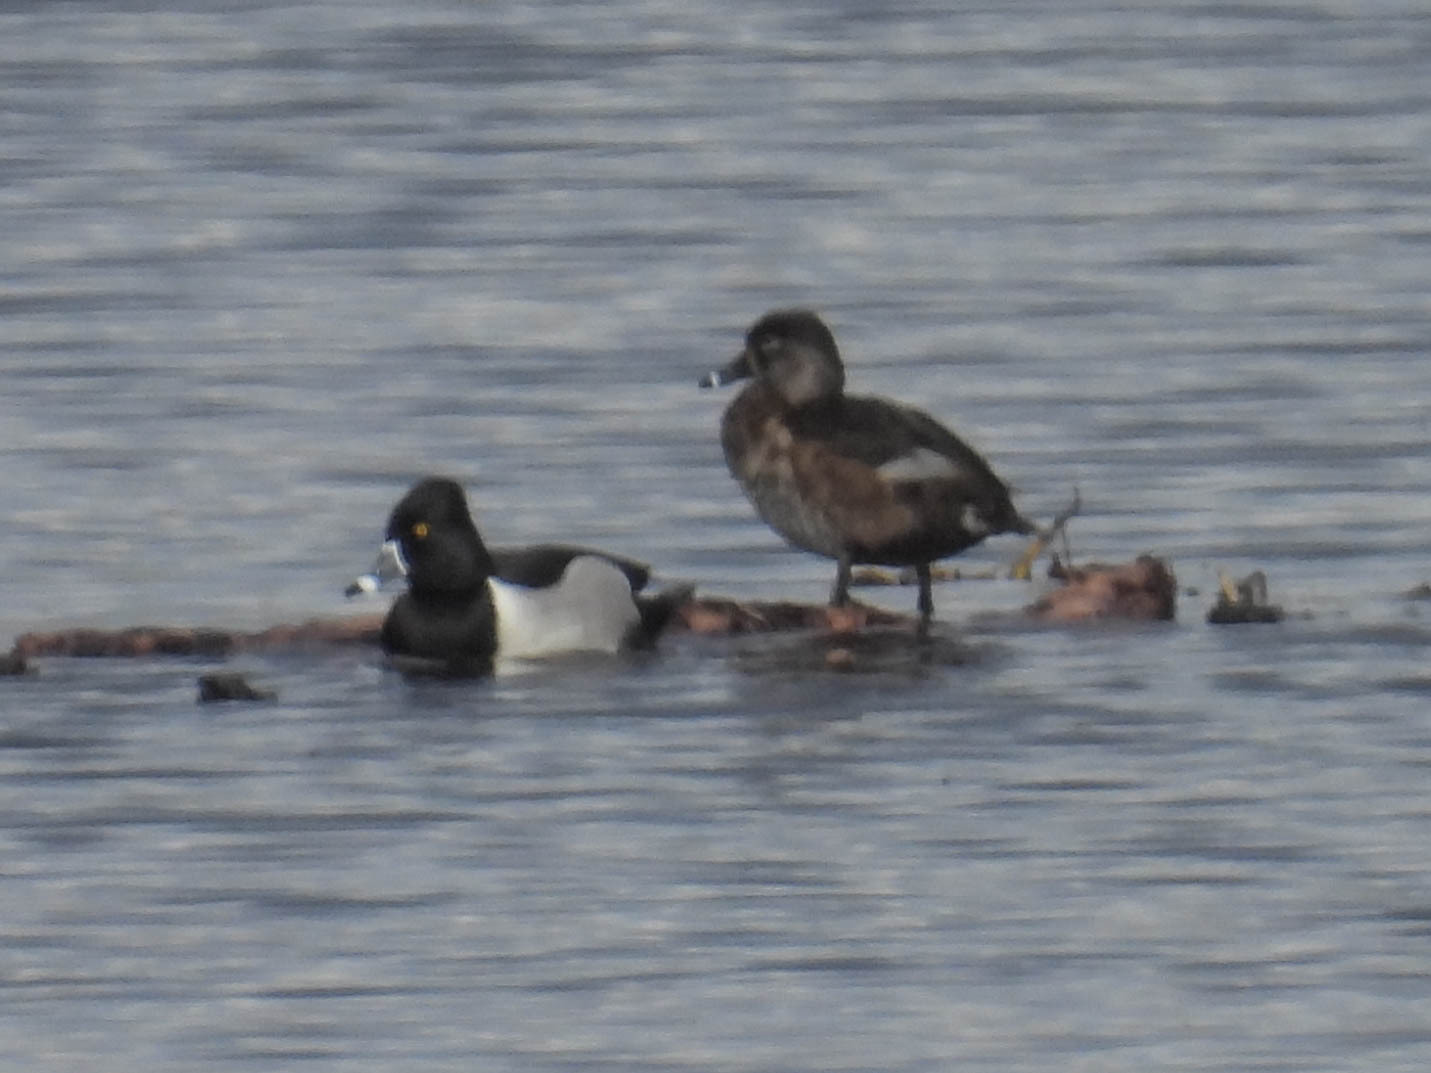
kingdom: Animalia
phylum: Chordata
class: Aves
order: Anseriformes
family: Anatidae
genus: Aythya
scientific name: Aythya collaris
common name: Ring-necked duck
